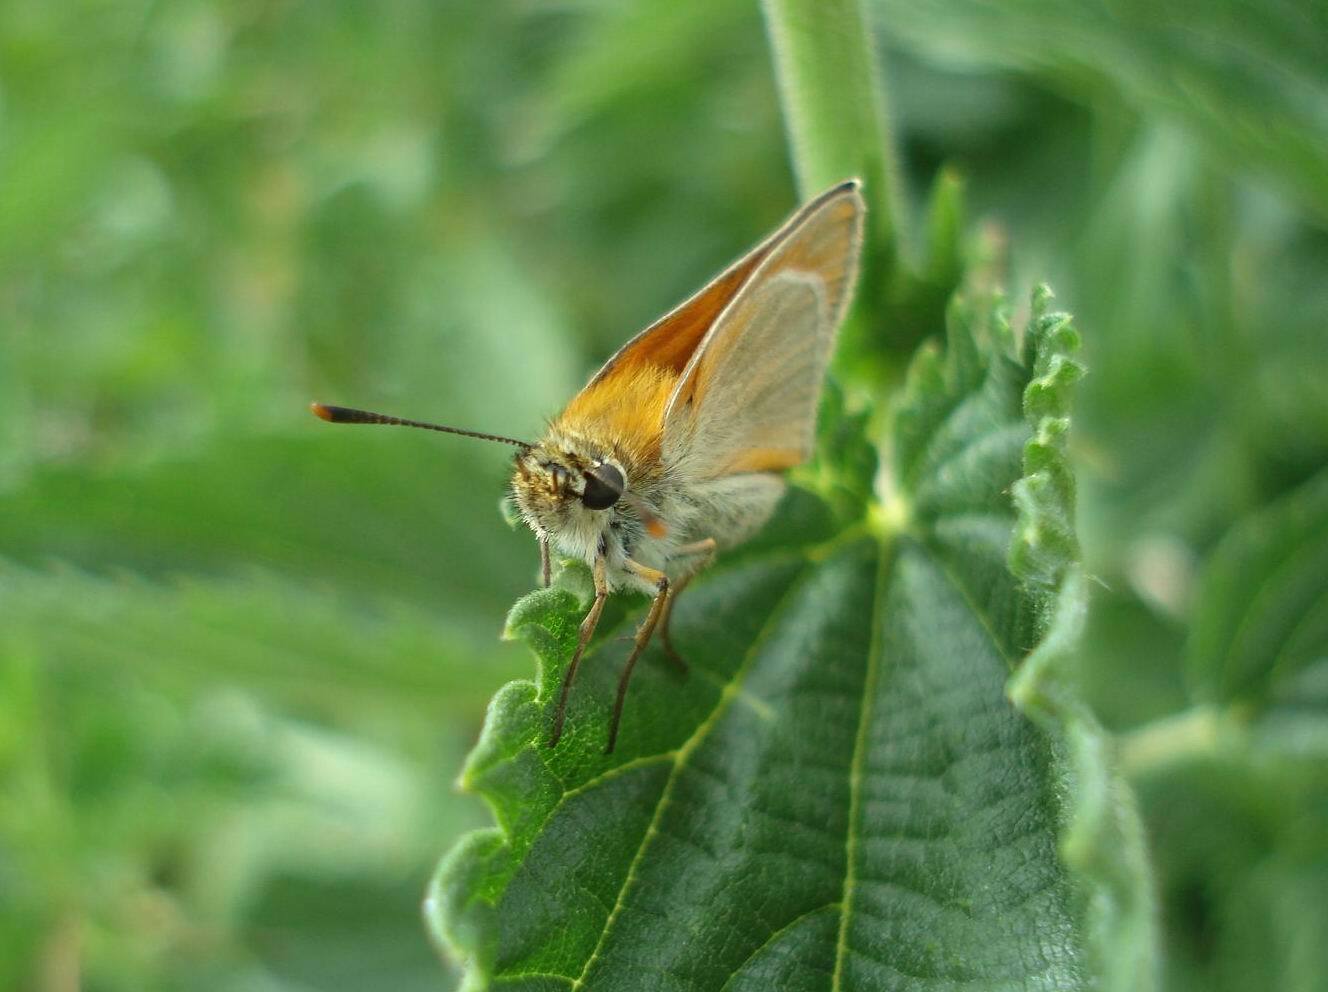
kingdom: Animalia
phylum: Arthropoda
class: Insecta
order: Lepidoptera
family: Hesperiidae
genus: Thymelicus
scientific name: Thymelicus sylvestris
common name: Small skipper
